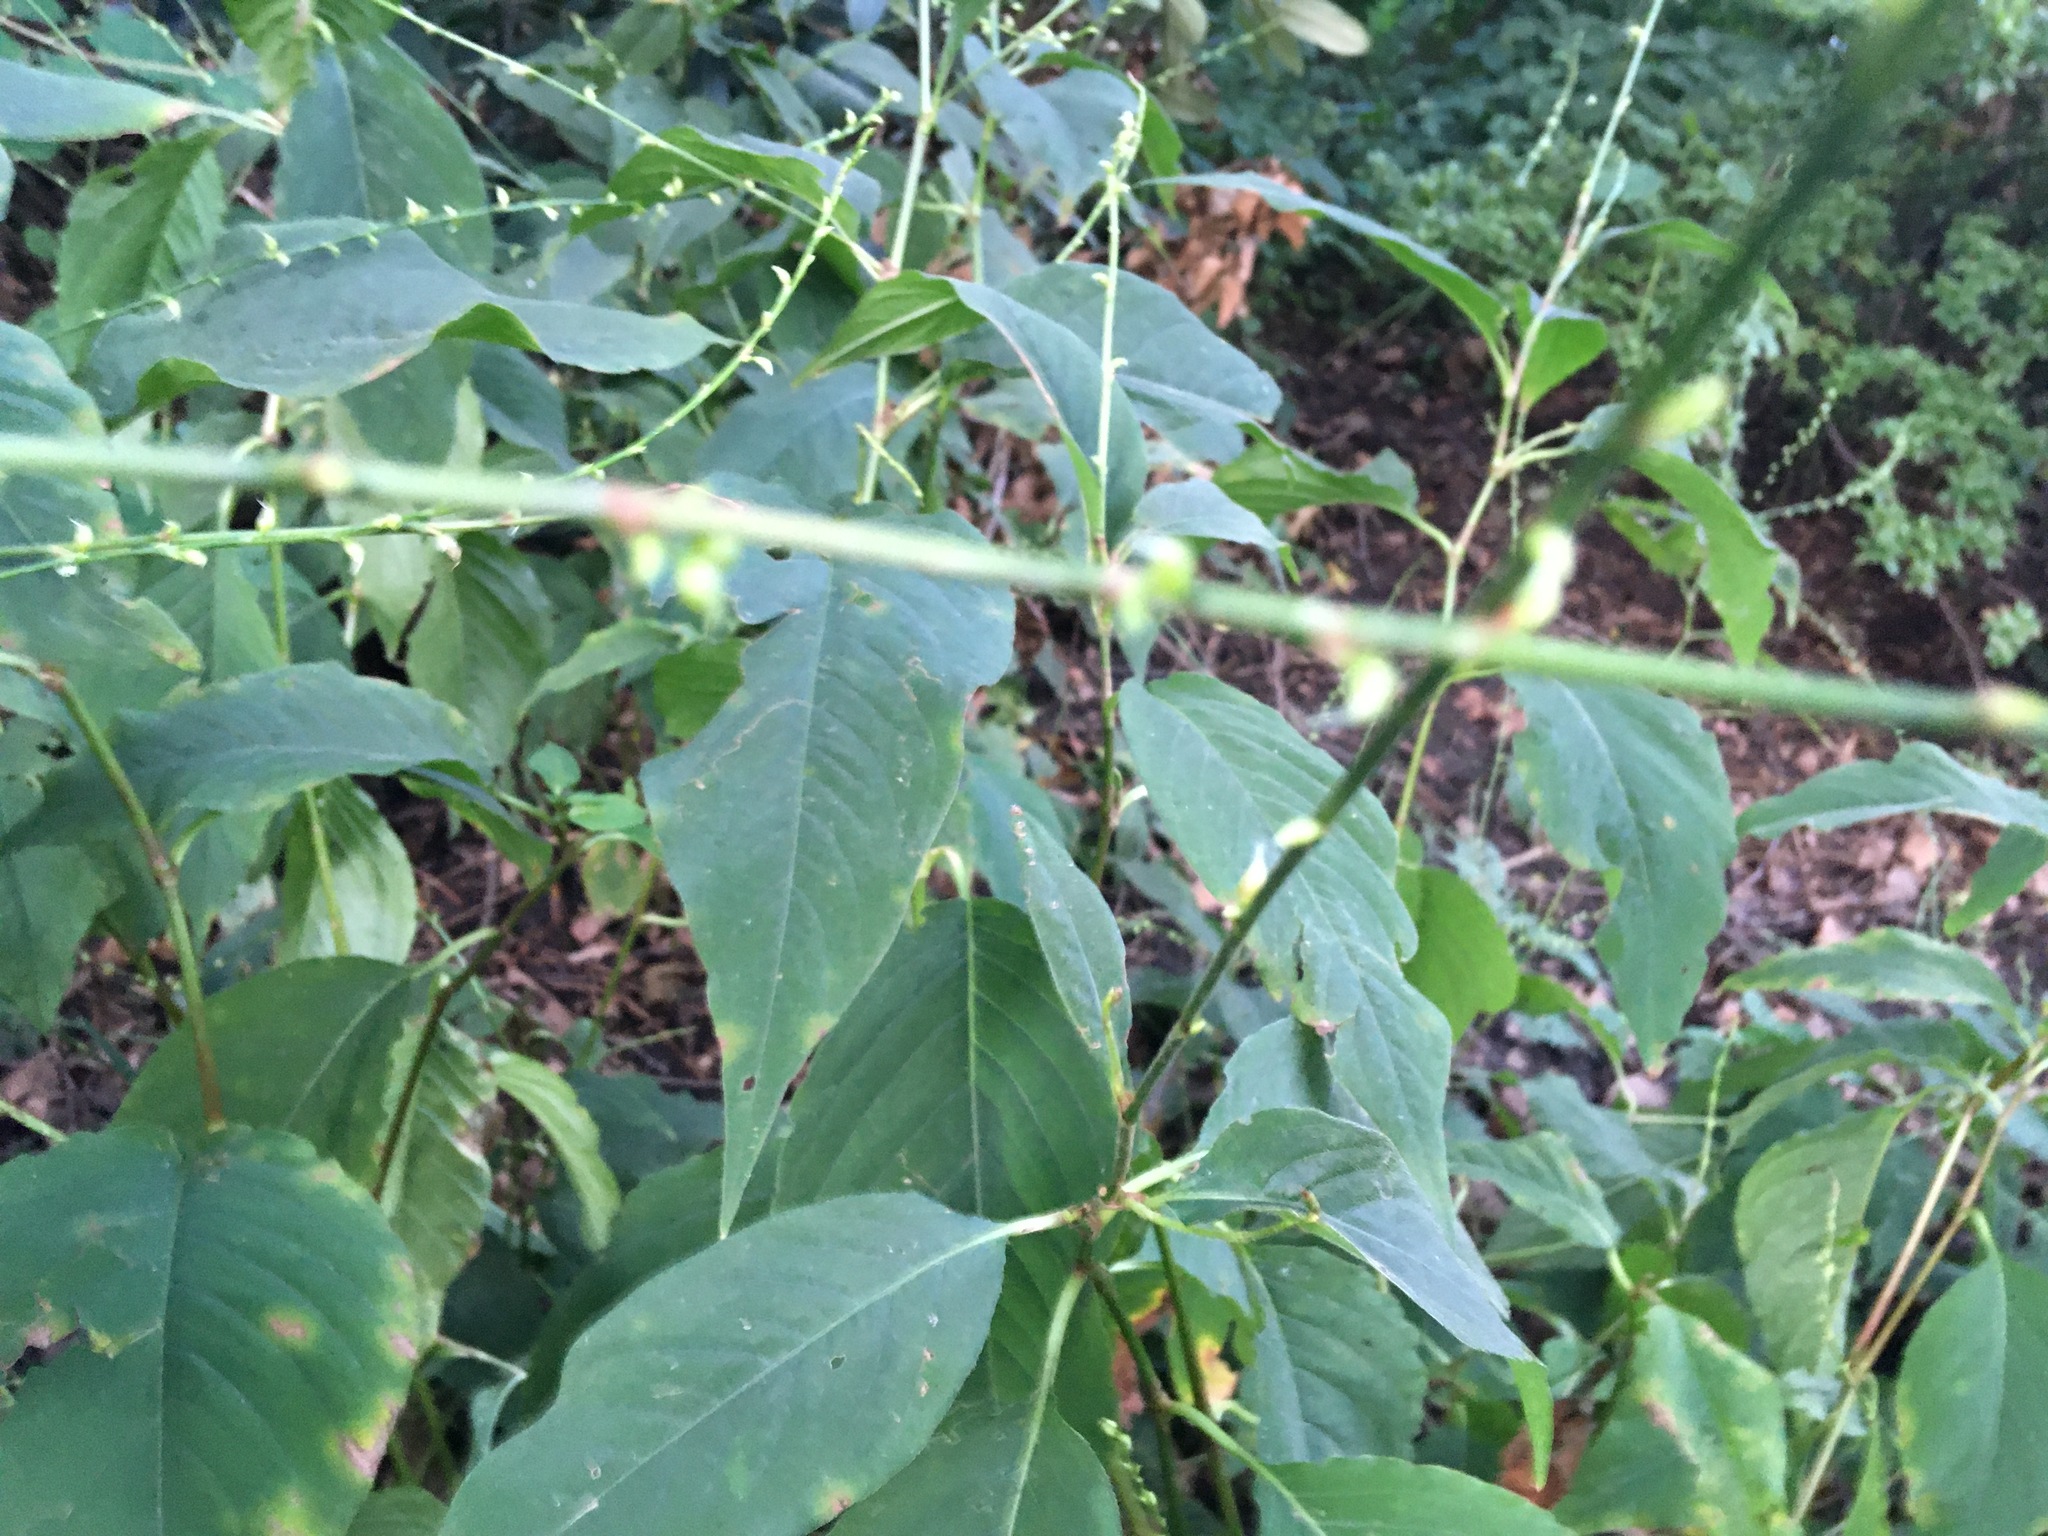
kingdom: Plantae
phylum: Tracheophyta
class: Magnoliopsida
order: Caryophyllales
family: Polygonaceae
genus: Persicaria
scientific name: Persicaria virginiana
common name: Jumpseed
